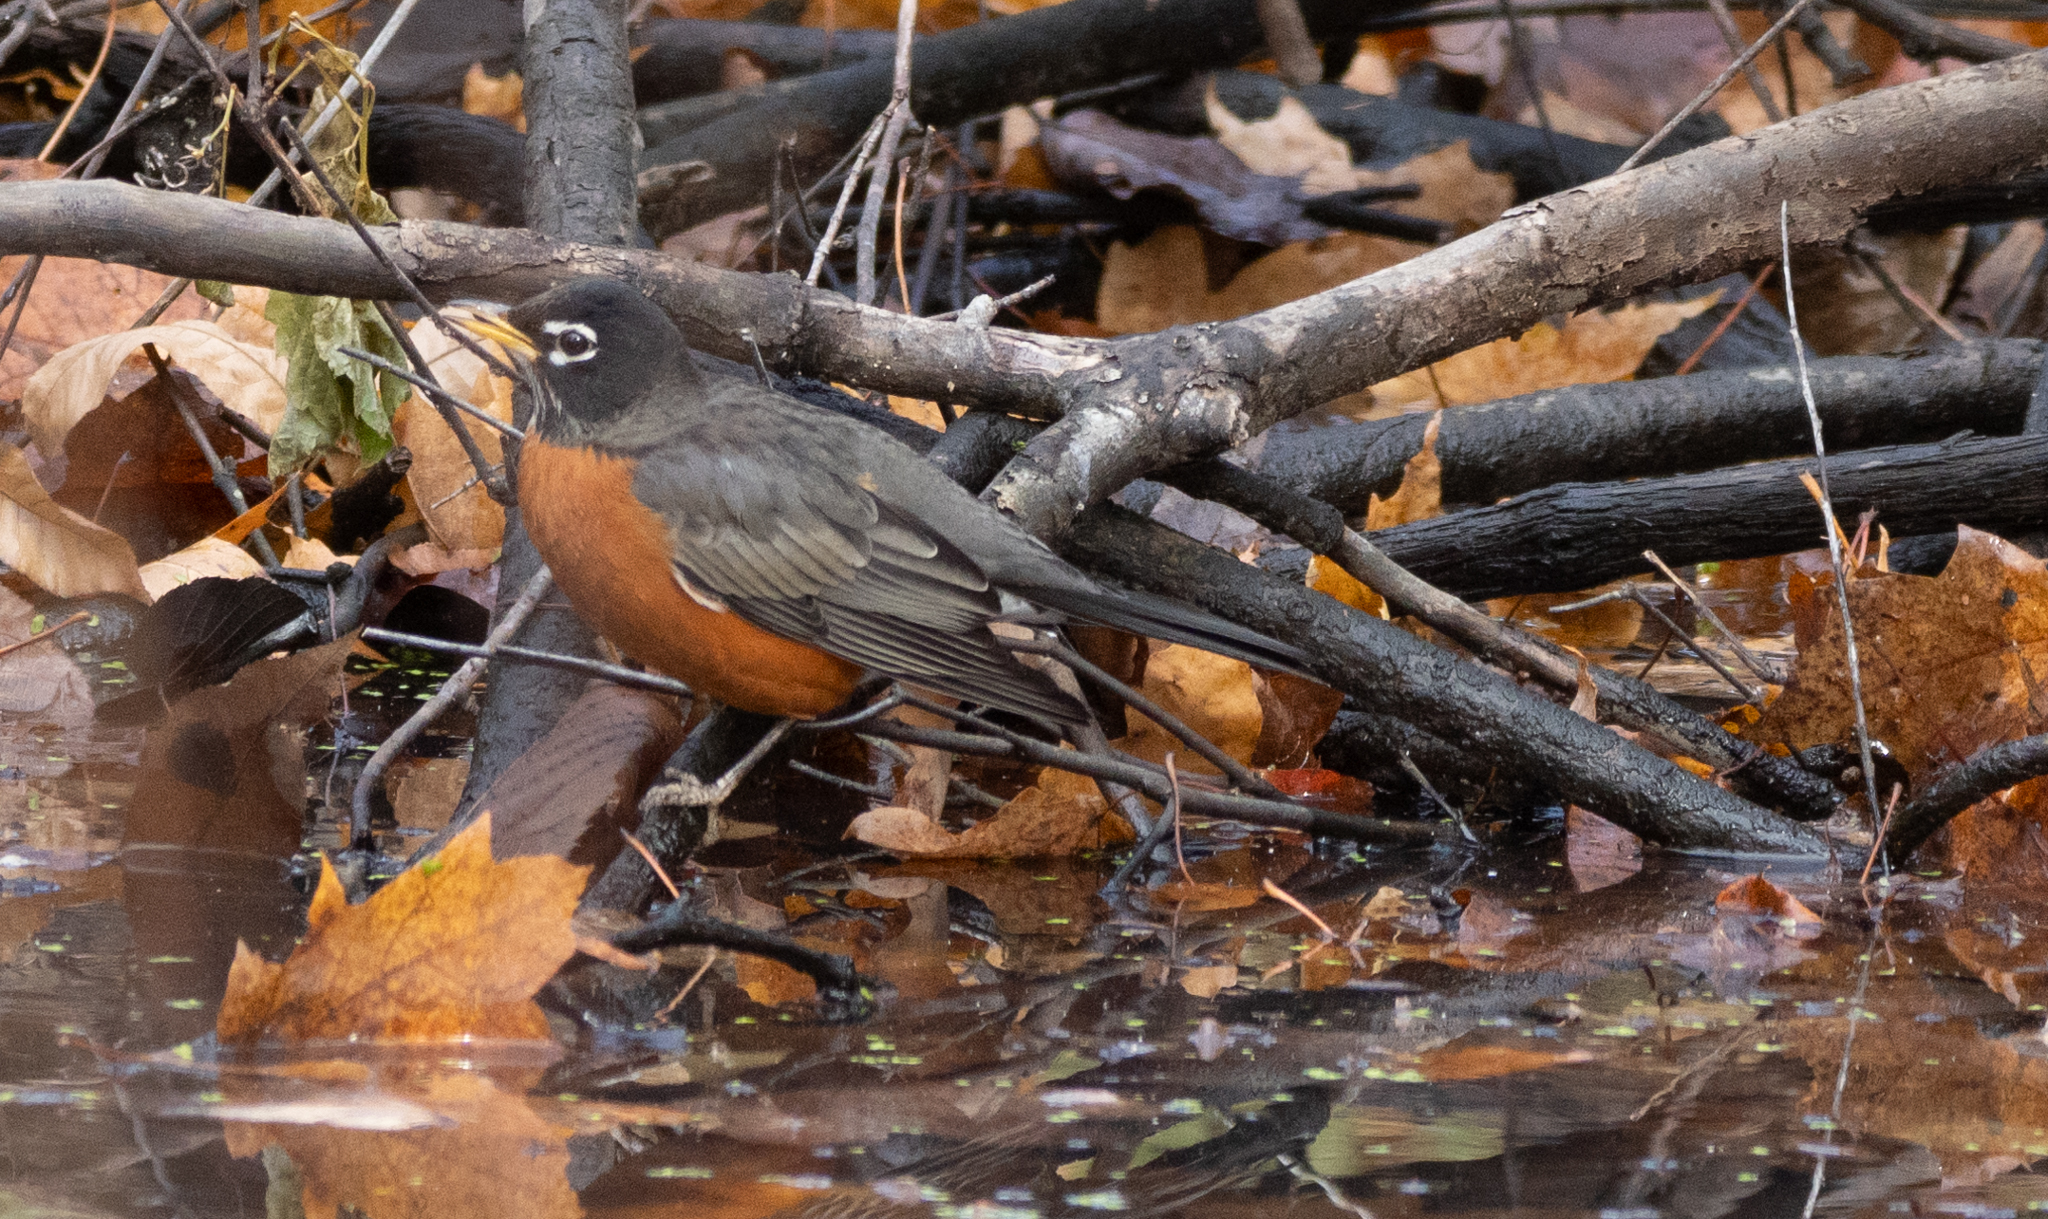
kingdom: Animalia
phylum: Chordata
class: Aves
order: Passeriformes
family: Turdidae
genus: Turdus
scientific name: Turdus migratorius
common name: American robin
